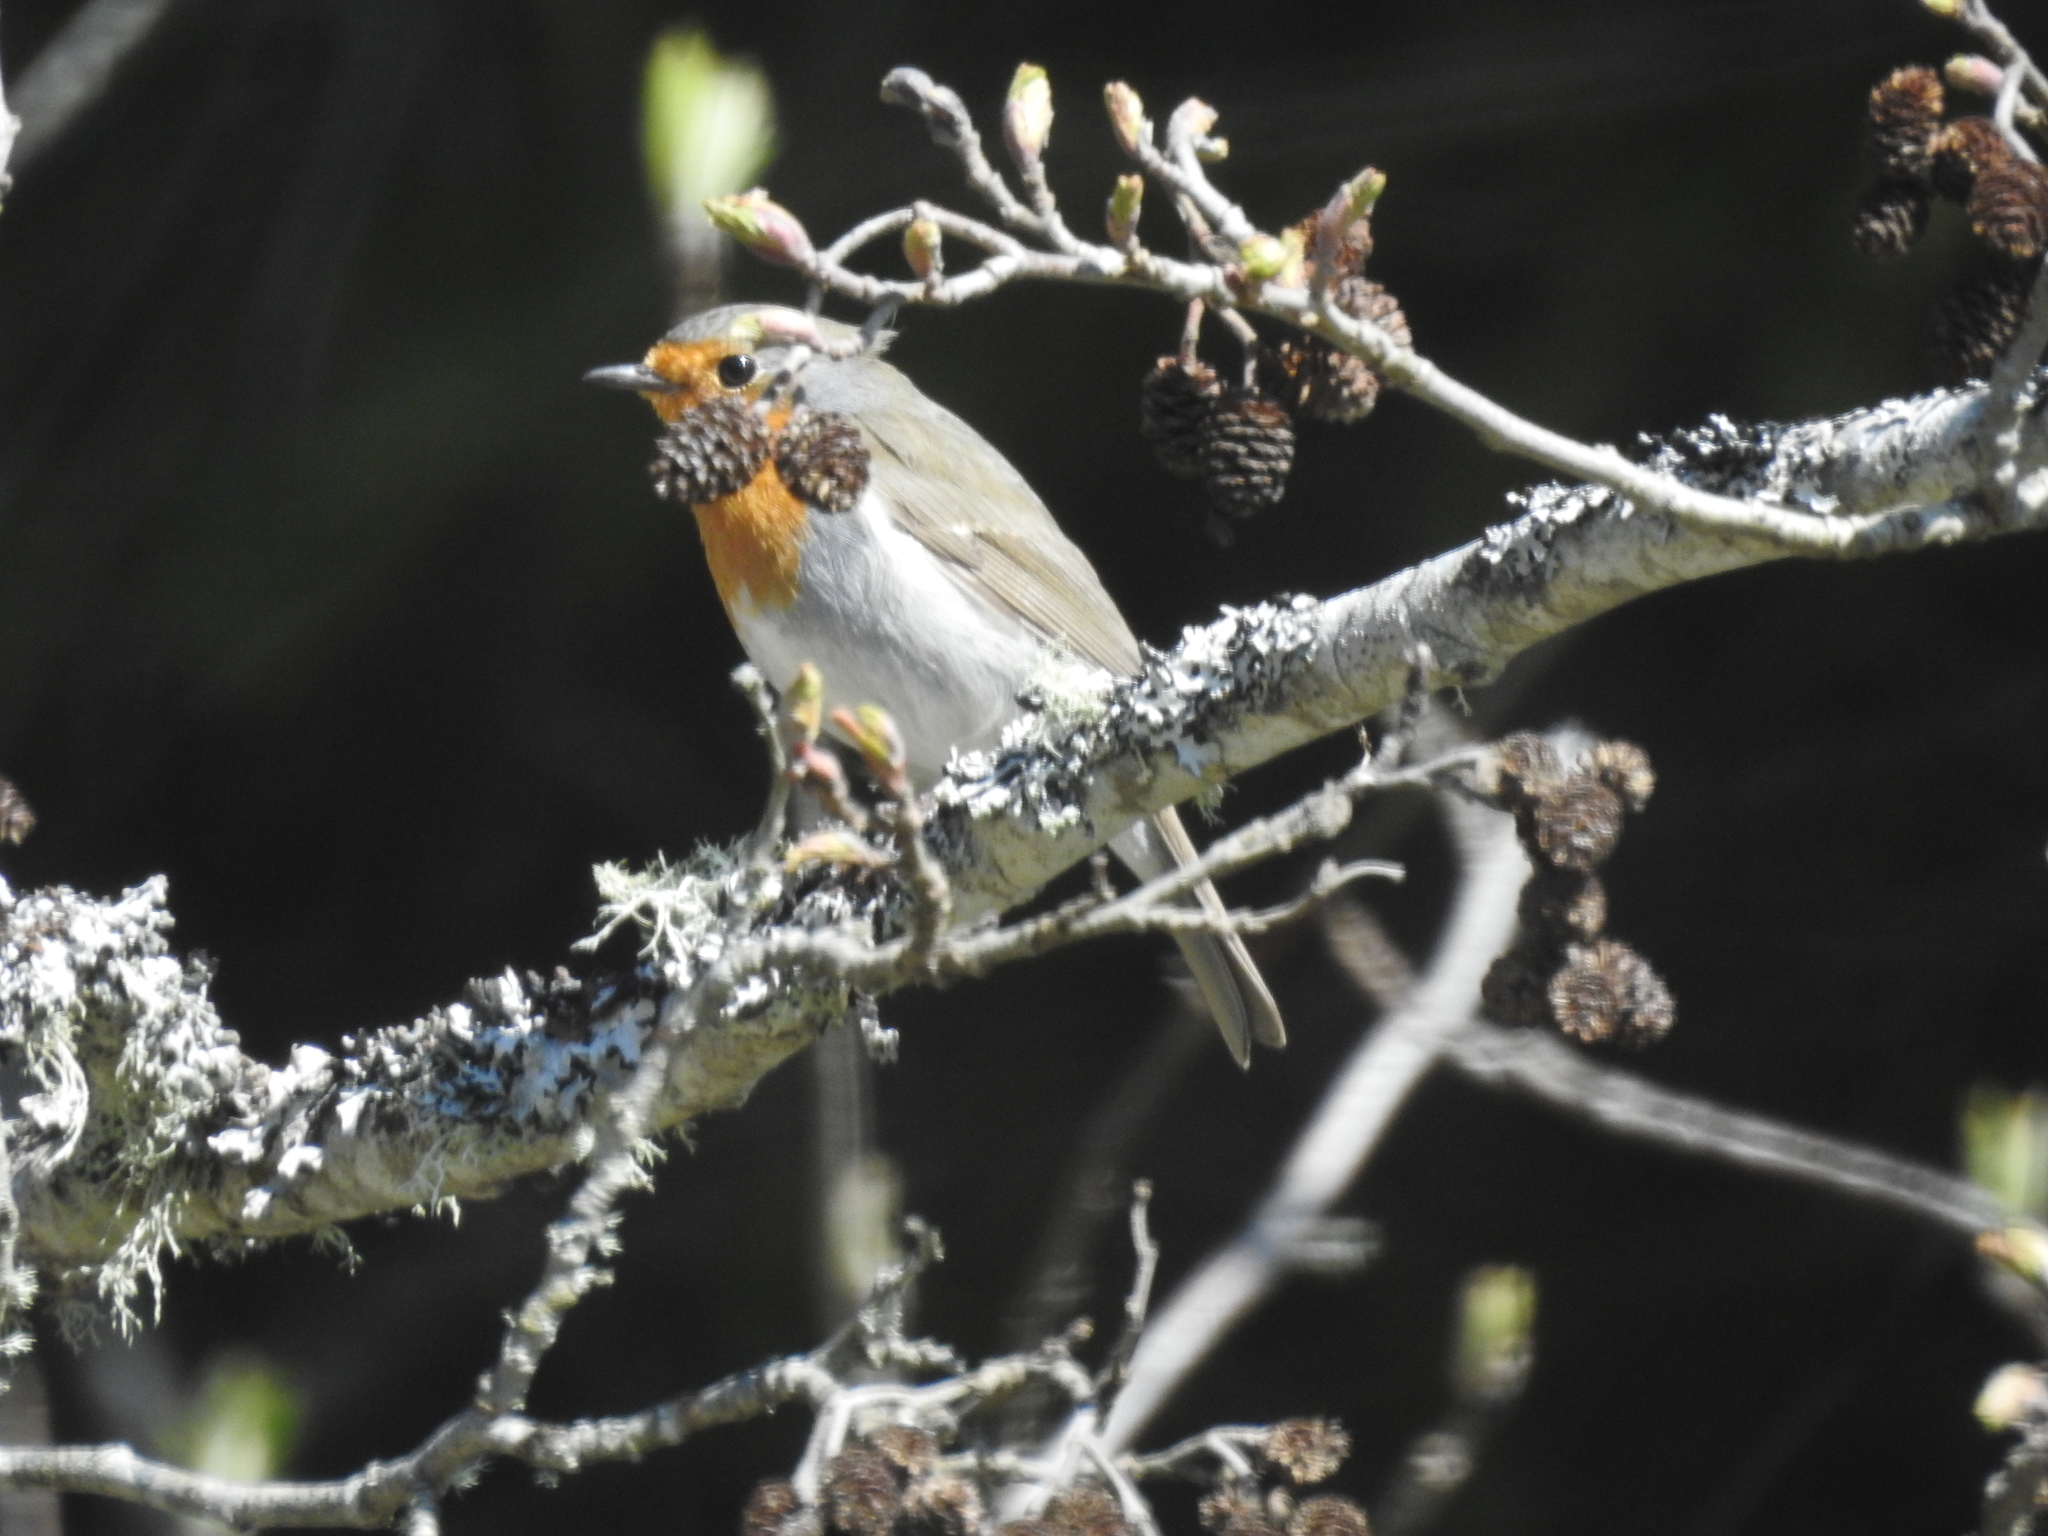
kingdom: Animalia
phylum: Chordata
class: Aves
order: Passeriformes
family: Muscicapidae
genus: Erithacus
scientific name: Erithacus rubecula
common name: European robin
